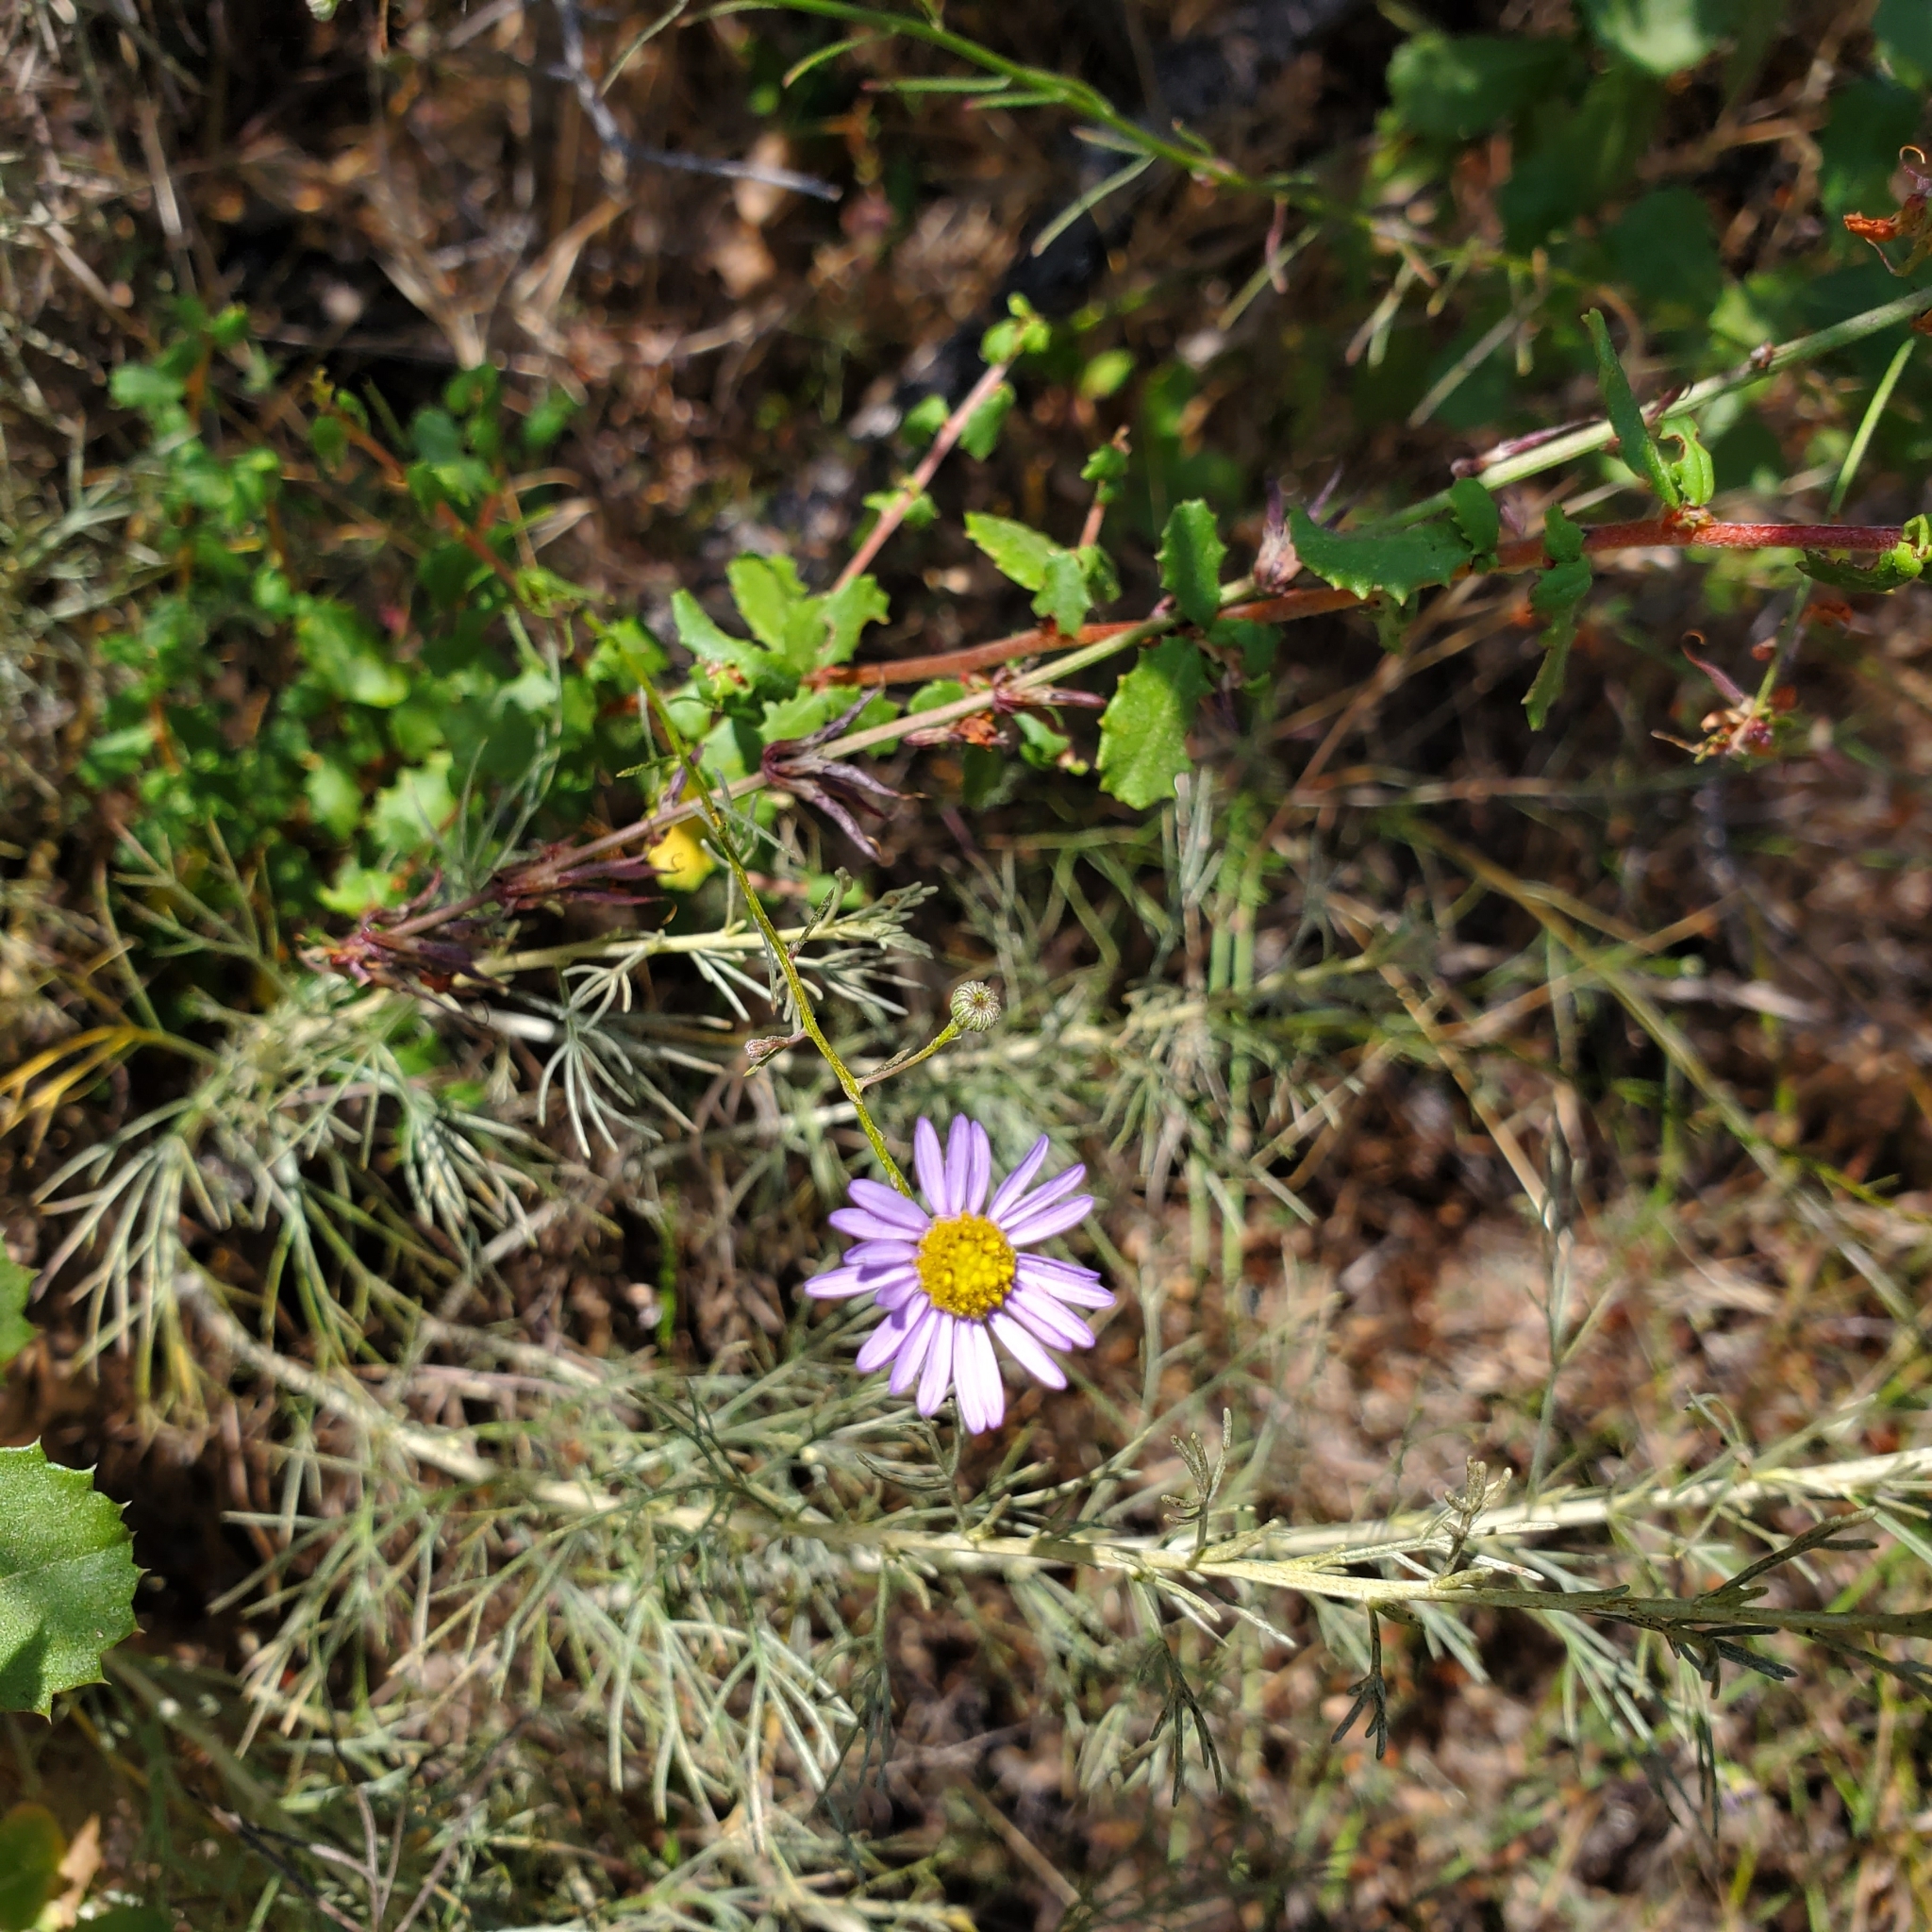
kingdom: Plantae
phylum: Tracheophyta
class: Magnoliopsida
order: Asterales
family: Asteraceae
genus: Erigeron
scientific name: Erigeron foliosus
